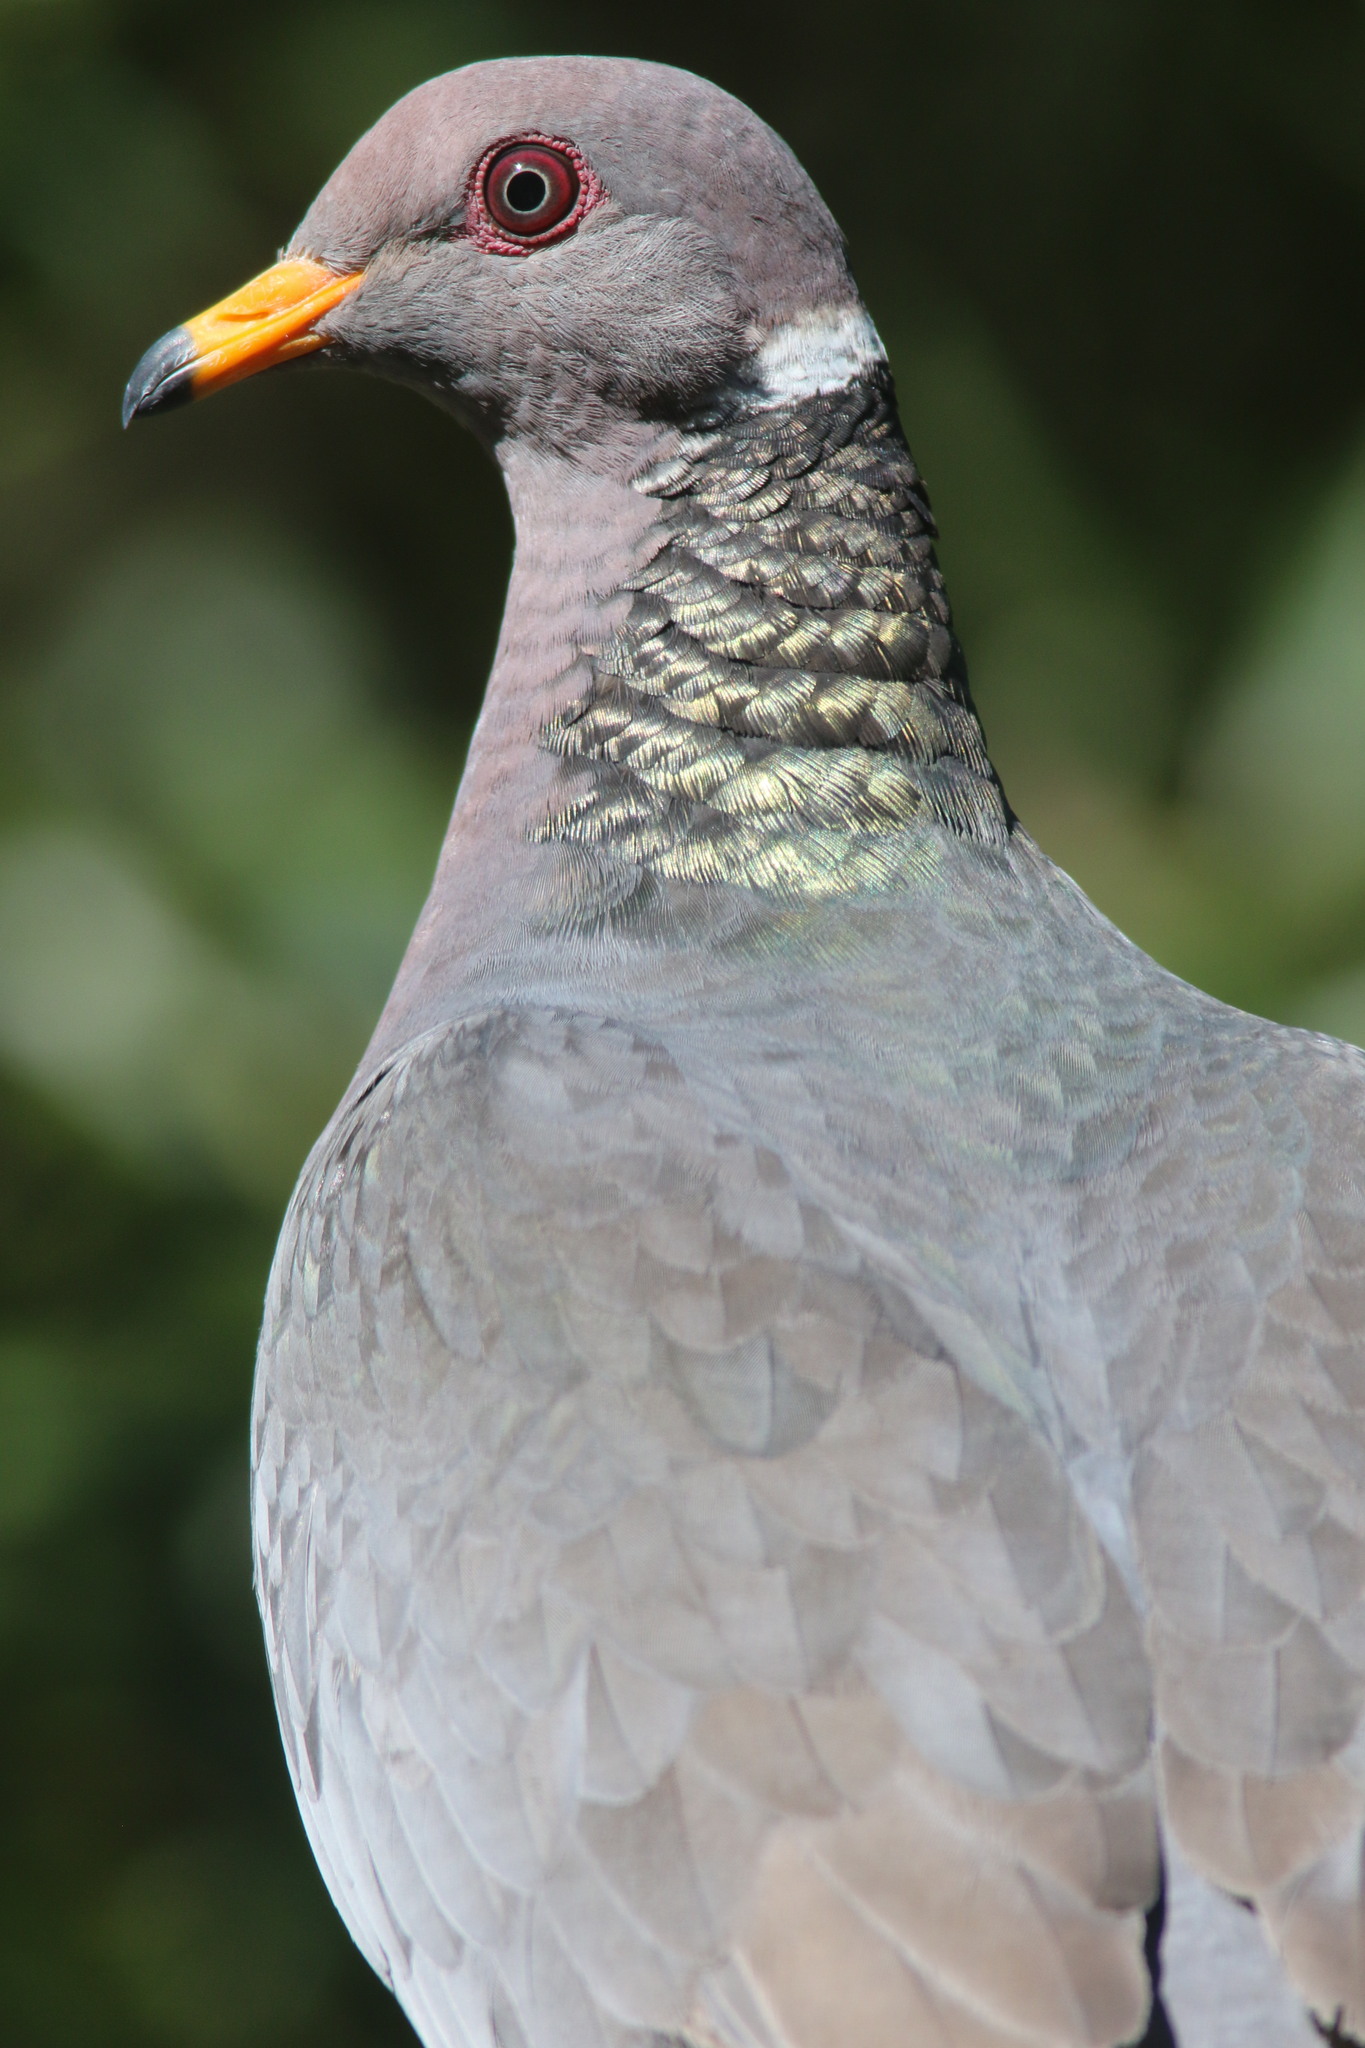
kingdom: Animalia
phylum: Chordata
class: Aves
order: Columbiformes
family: Columbidae
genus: Patagioenas
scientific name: Patagioenas fasciata
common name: Band-tailed pigeon
